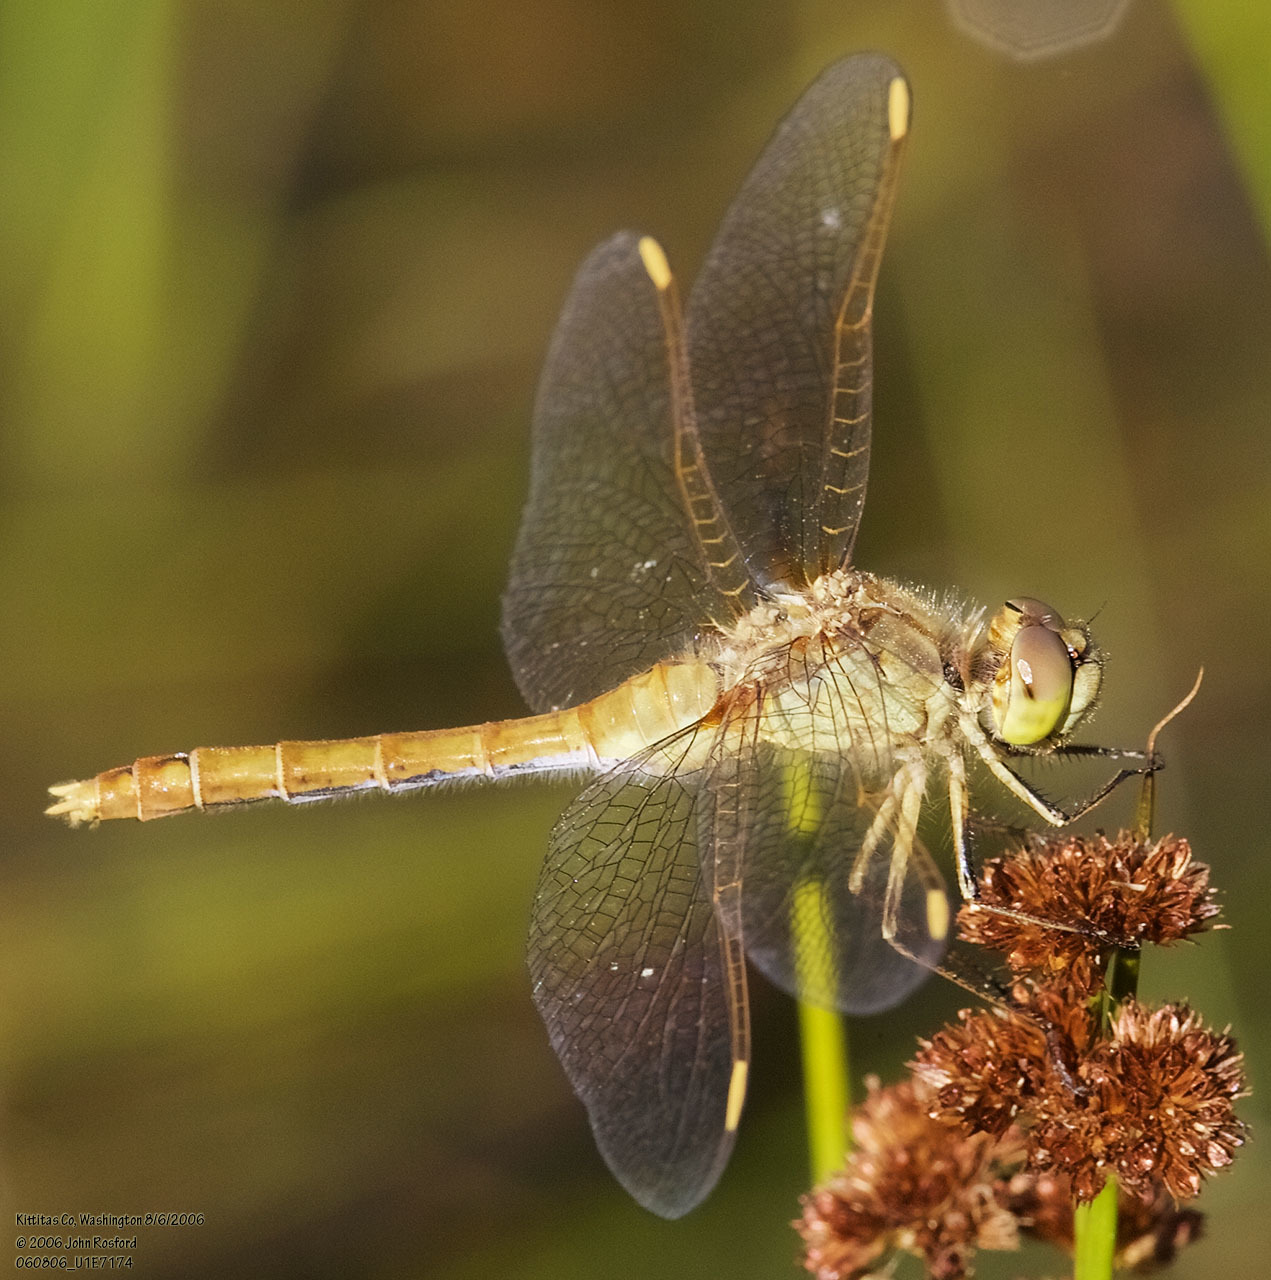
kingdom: Animalia
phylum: Arthropoda
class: Insecta
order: Odonata
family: Libellulidae
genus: Sympetrum
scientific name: Sympetrum costiferum
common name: Saffron-winged meadowhawk
